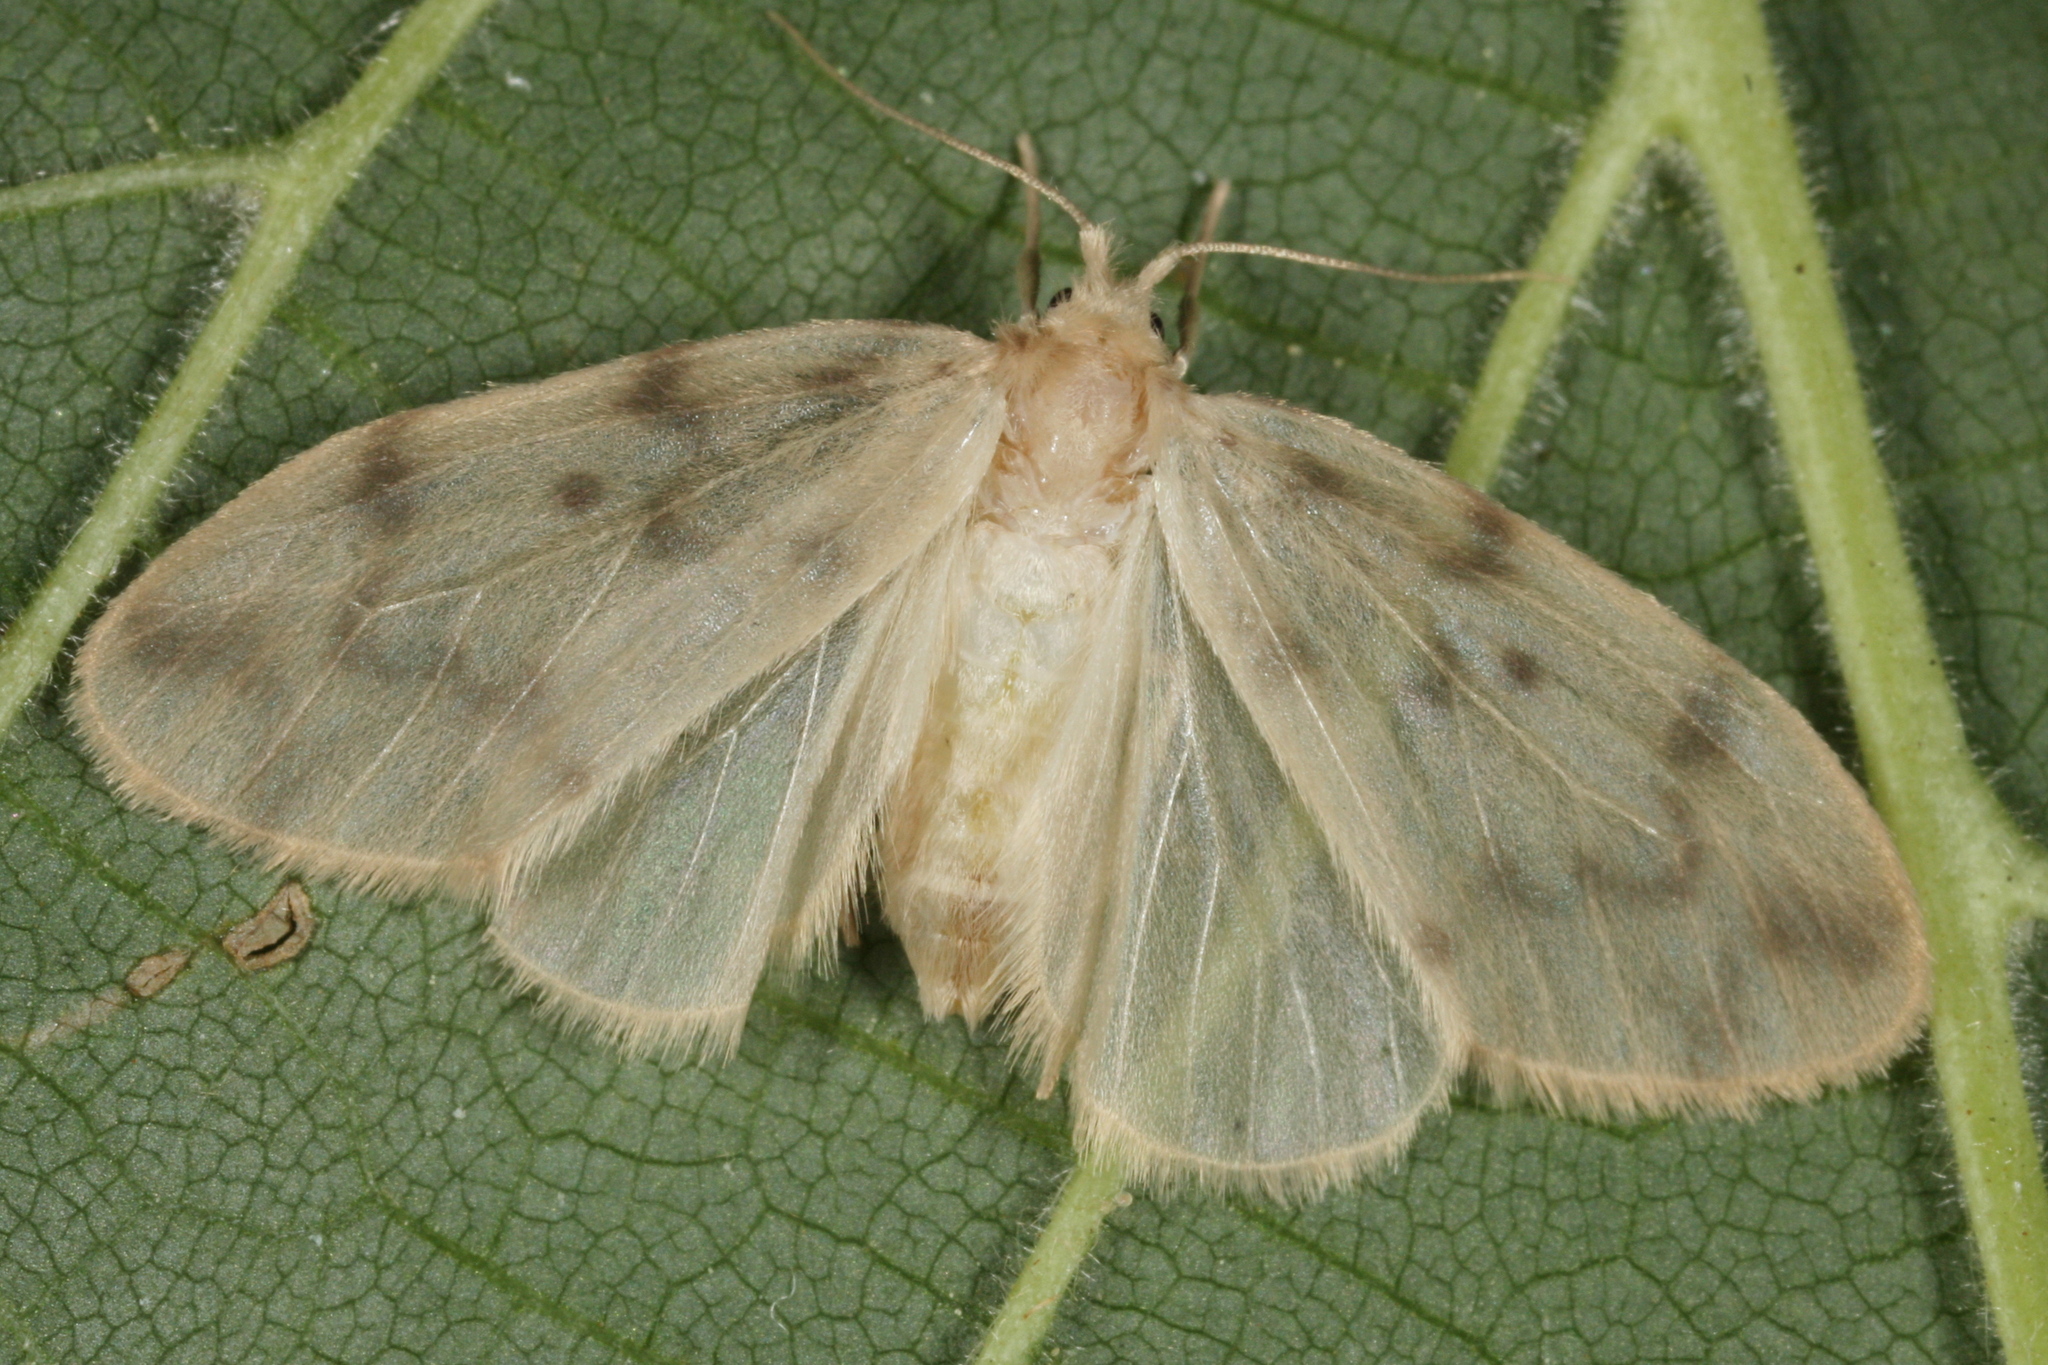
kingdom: Animalia
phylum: Arthropoda
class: Insecta
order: Lepidoptera
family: Erebidae
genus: Nudaria
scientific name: Nudaria mundana
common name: Muslin footman
